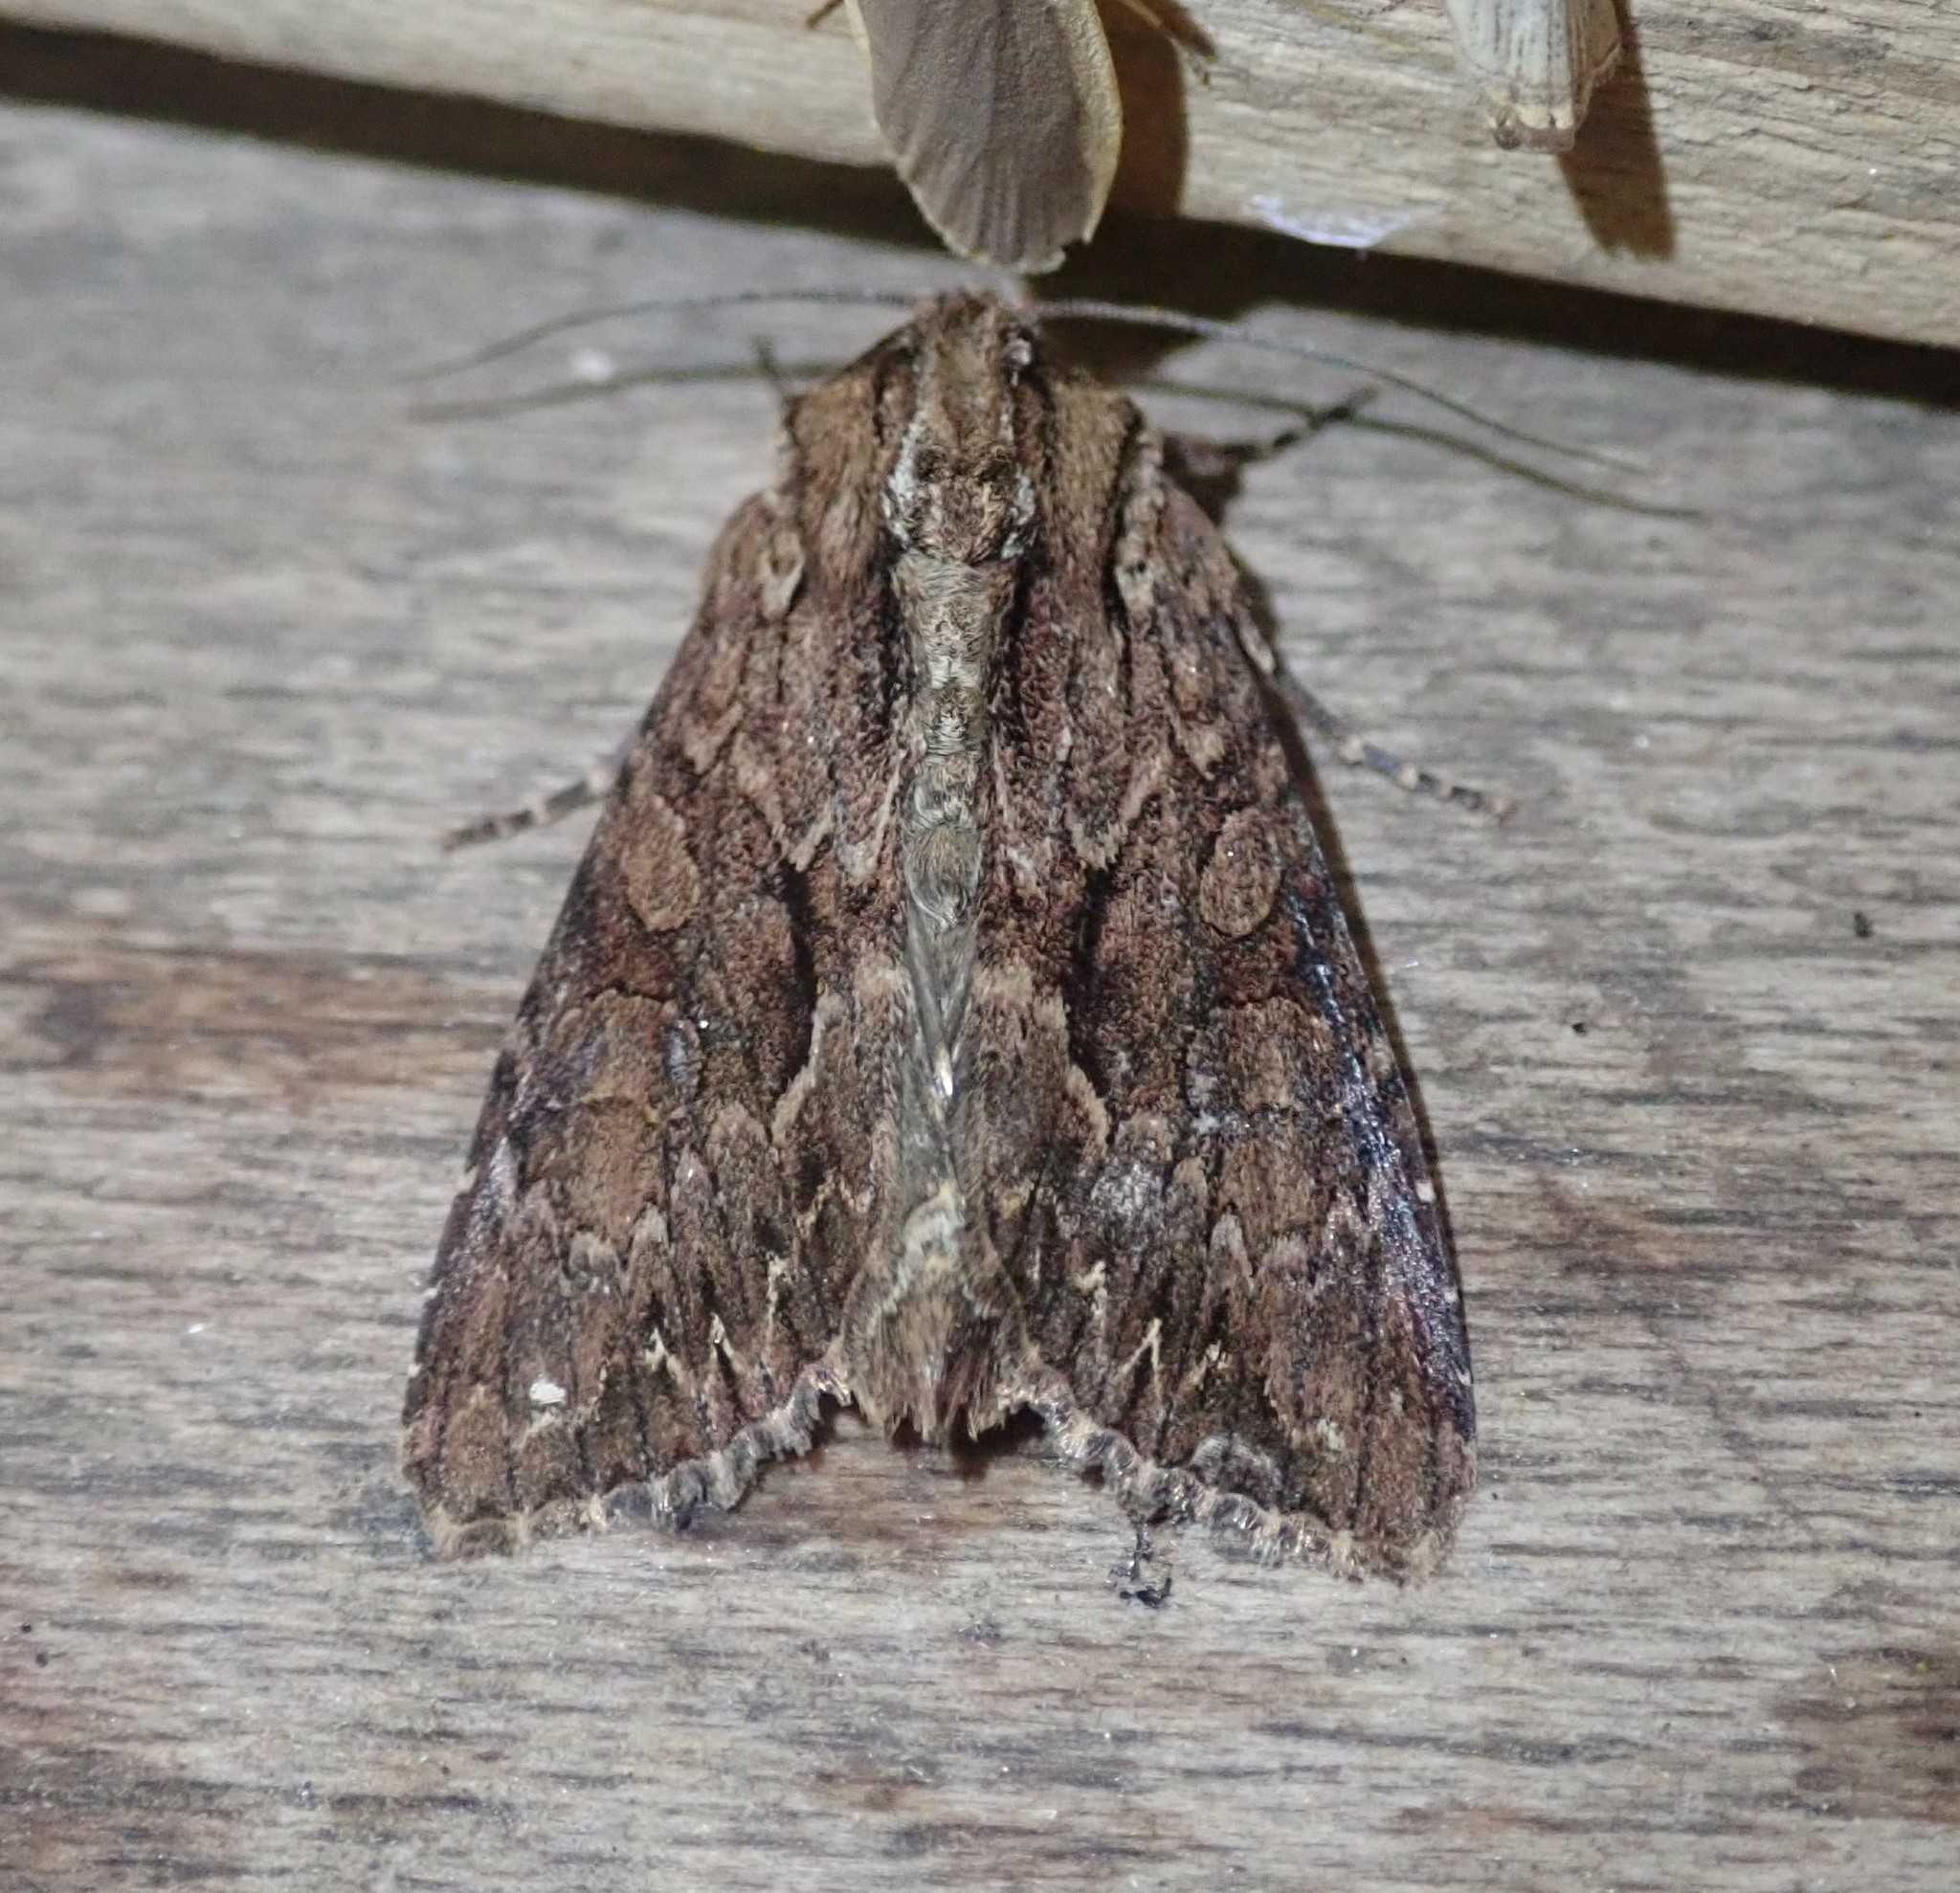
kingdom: Animalia
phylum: Arthropoda
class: Insecta
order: Lepidoptera
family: Noctuidae
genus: Apamea
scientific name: Apamea monoglypha
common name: Dark arches
